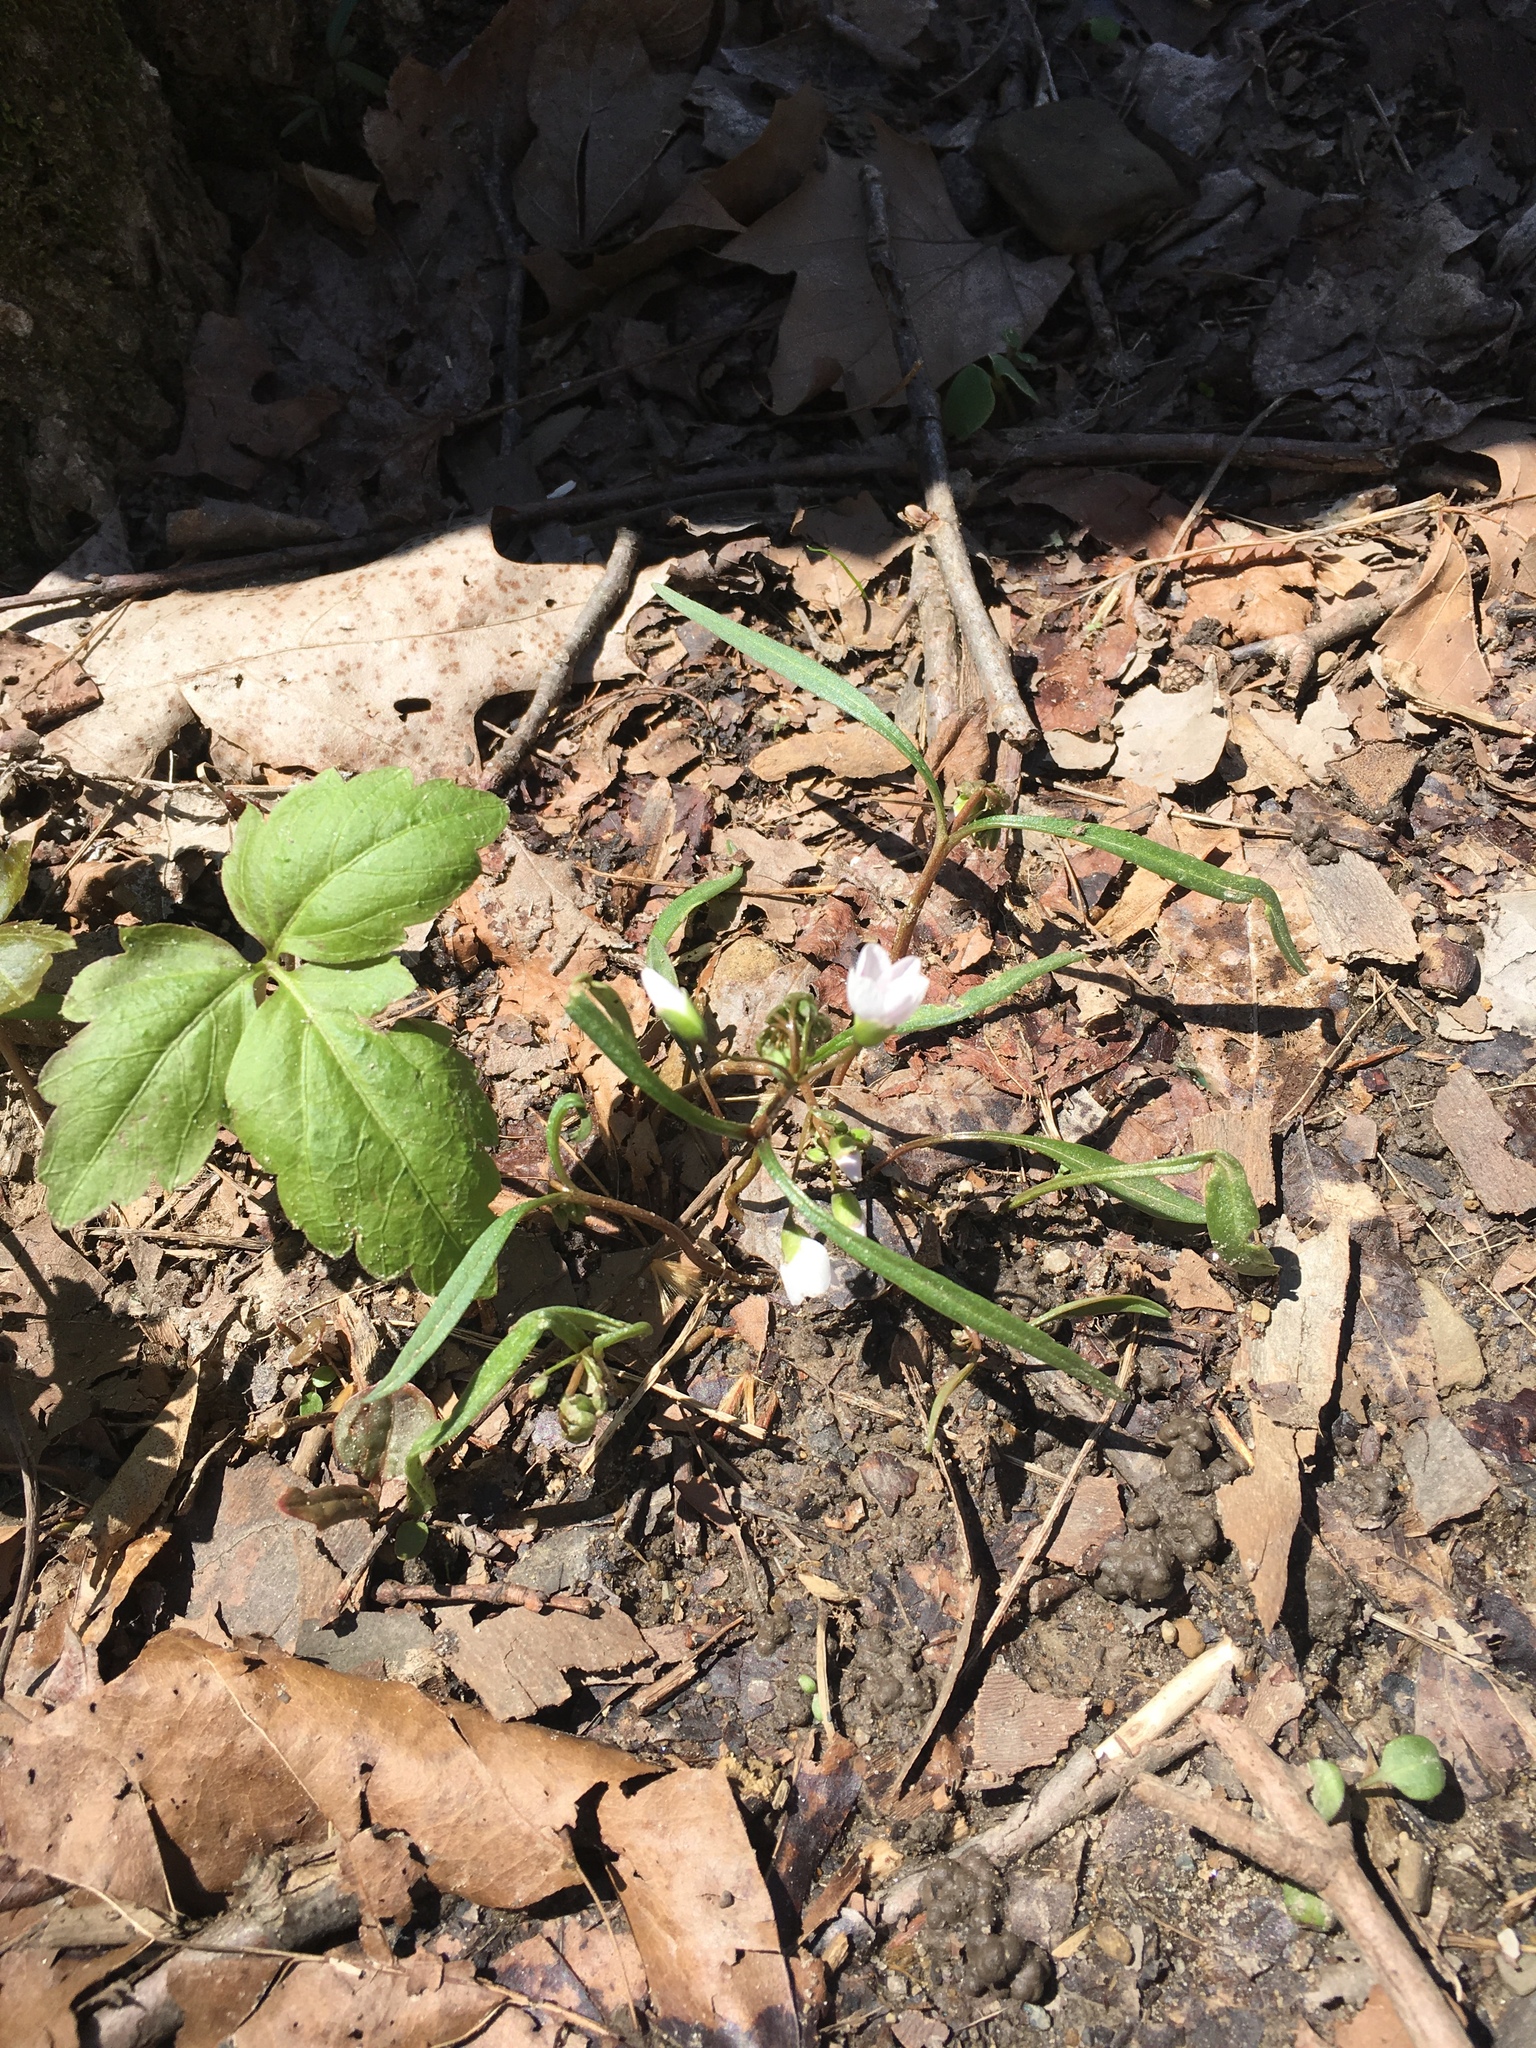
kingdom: Plantae
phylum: Tracheophyta
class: Magnoliopsida
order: Caryophyllales
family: Montiaceae
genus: Claytonia
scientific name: Claytonia virginica
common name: Virginia springbeauty
